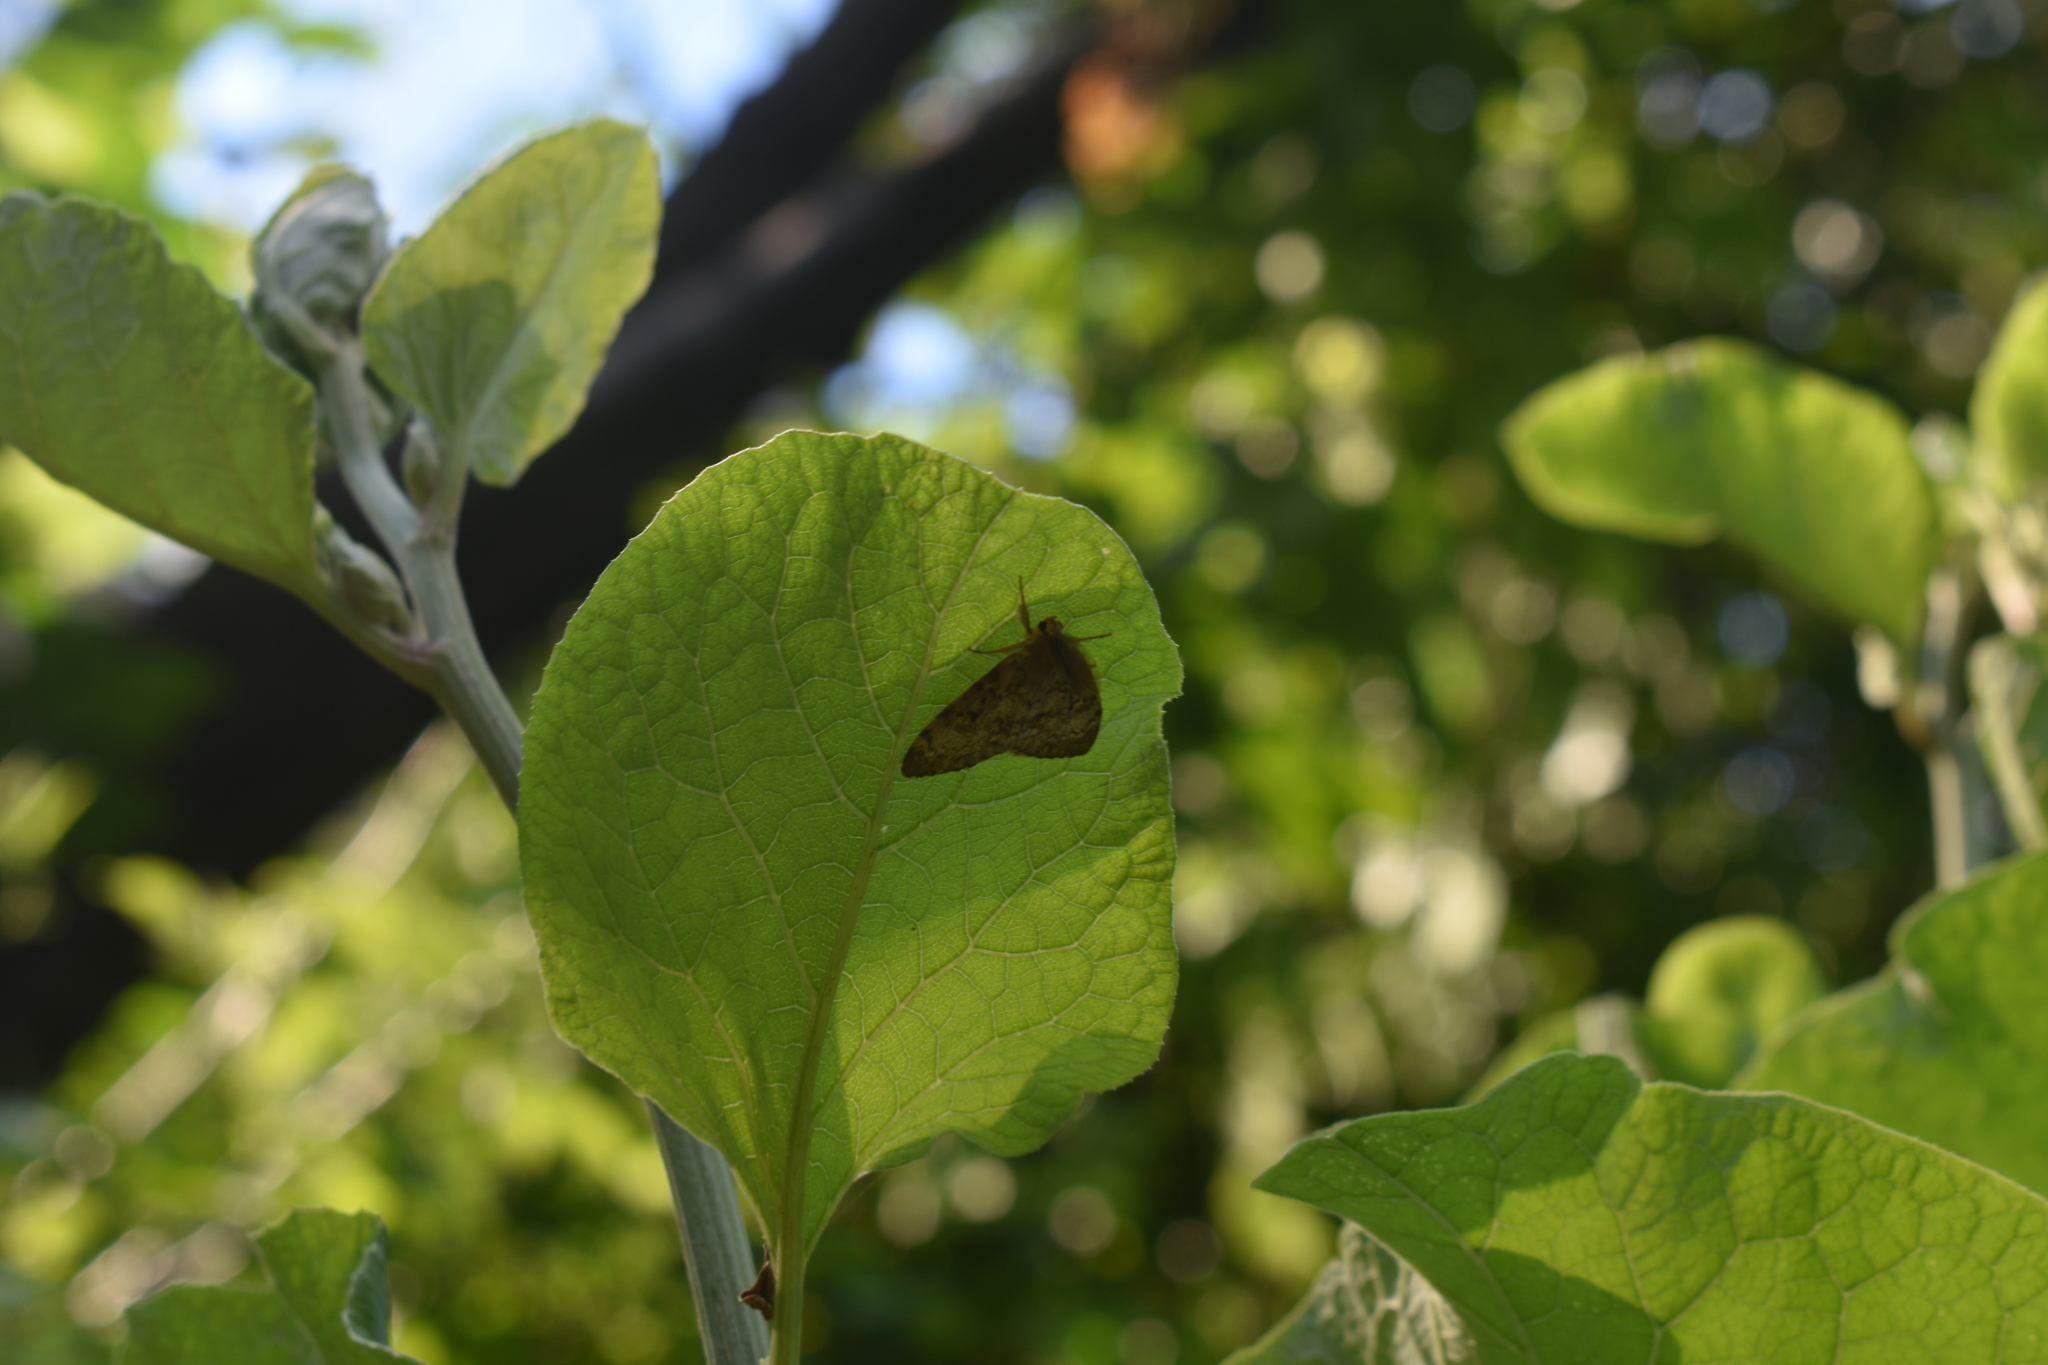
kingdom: Animalia
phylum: Arthropoda
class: Insecta
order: Lepidoptera
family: Erebidae
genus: Lymantria
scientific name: Lymantria dispar
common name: Gypsy moth
